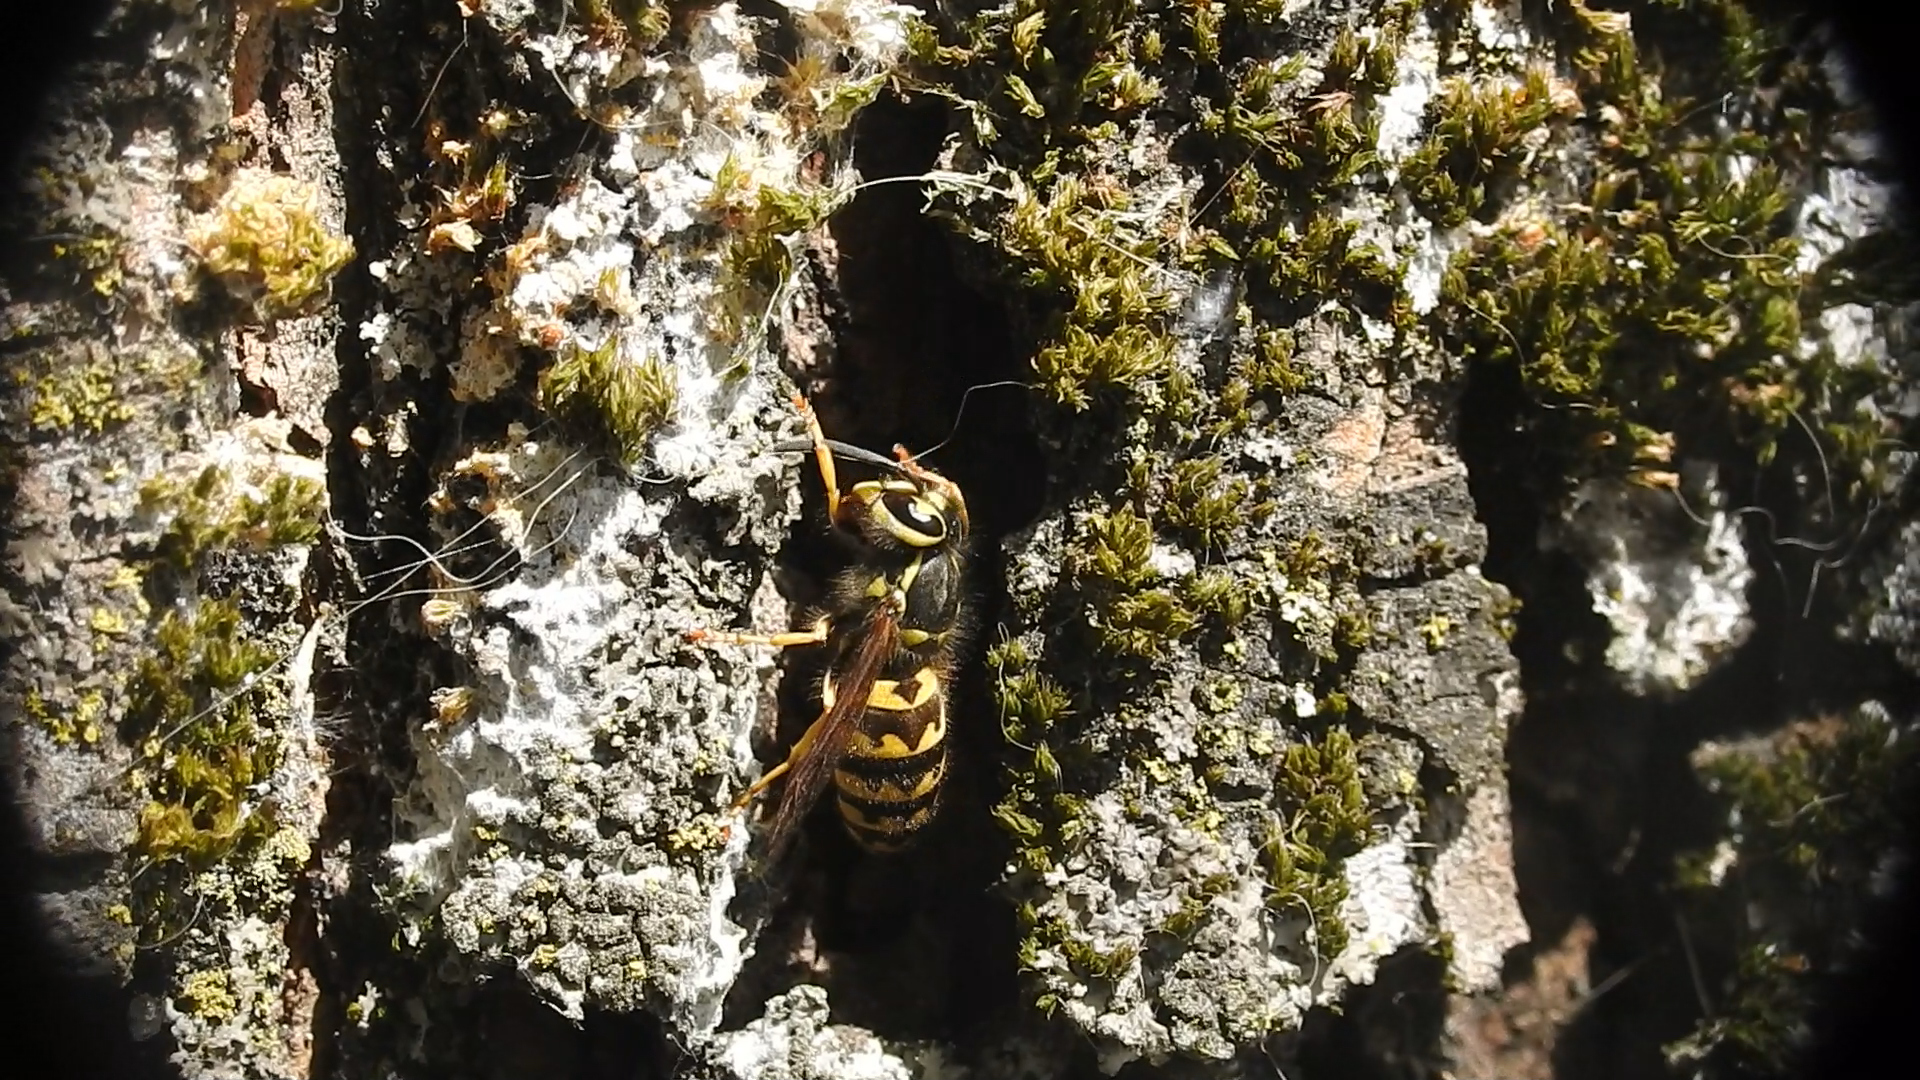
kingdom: Animalia
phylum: Arthropoda
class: Insecta
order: Hymenoptera
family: Vespidae
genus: Vespula
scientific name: Vespula pensylvanica
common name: Western yellowjacket
